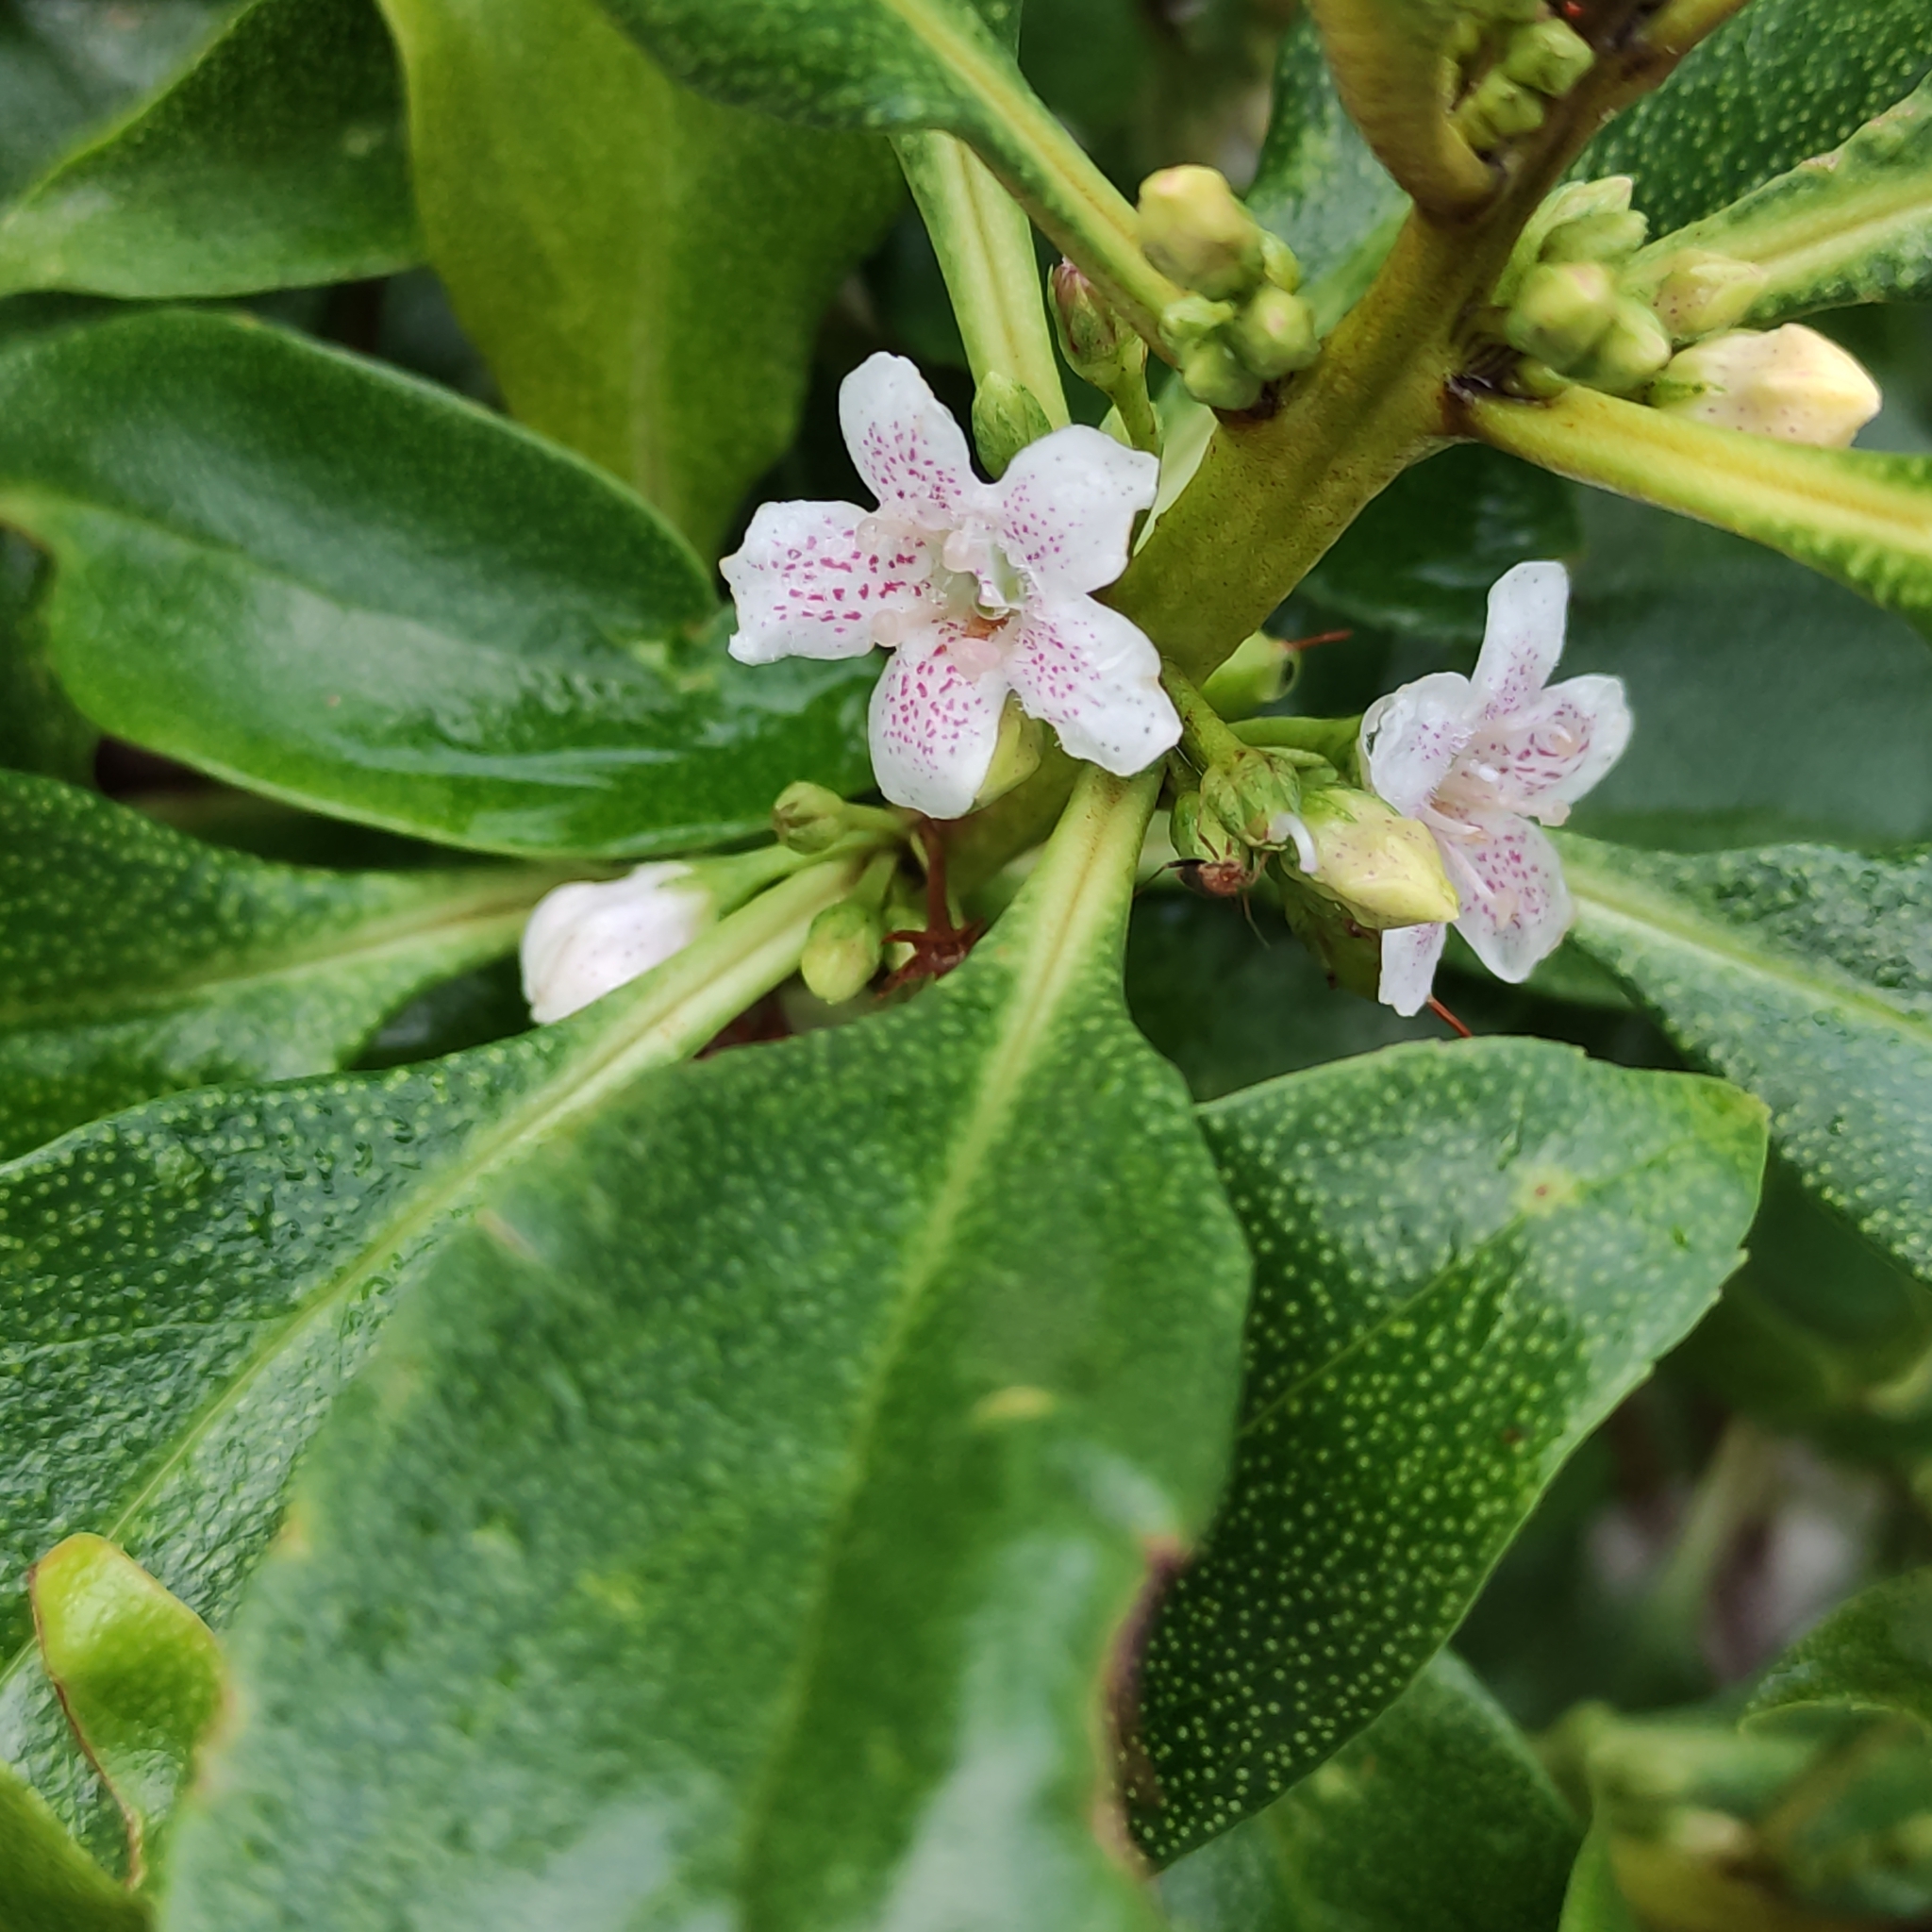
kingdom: Plantae
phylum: Tracheophyta
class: Magnoliopsida
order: Lamiales
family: Scrophulariaceae
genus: Myoporum
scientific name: Myoporum laetum
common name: Ngaio tree
